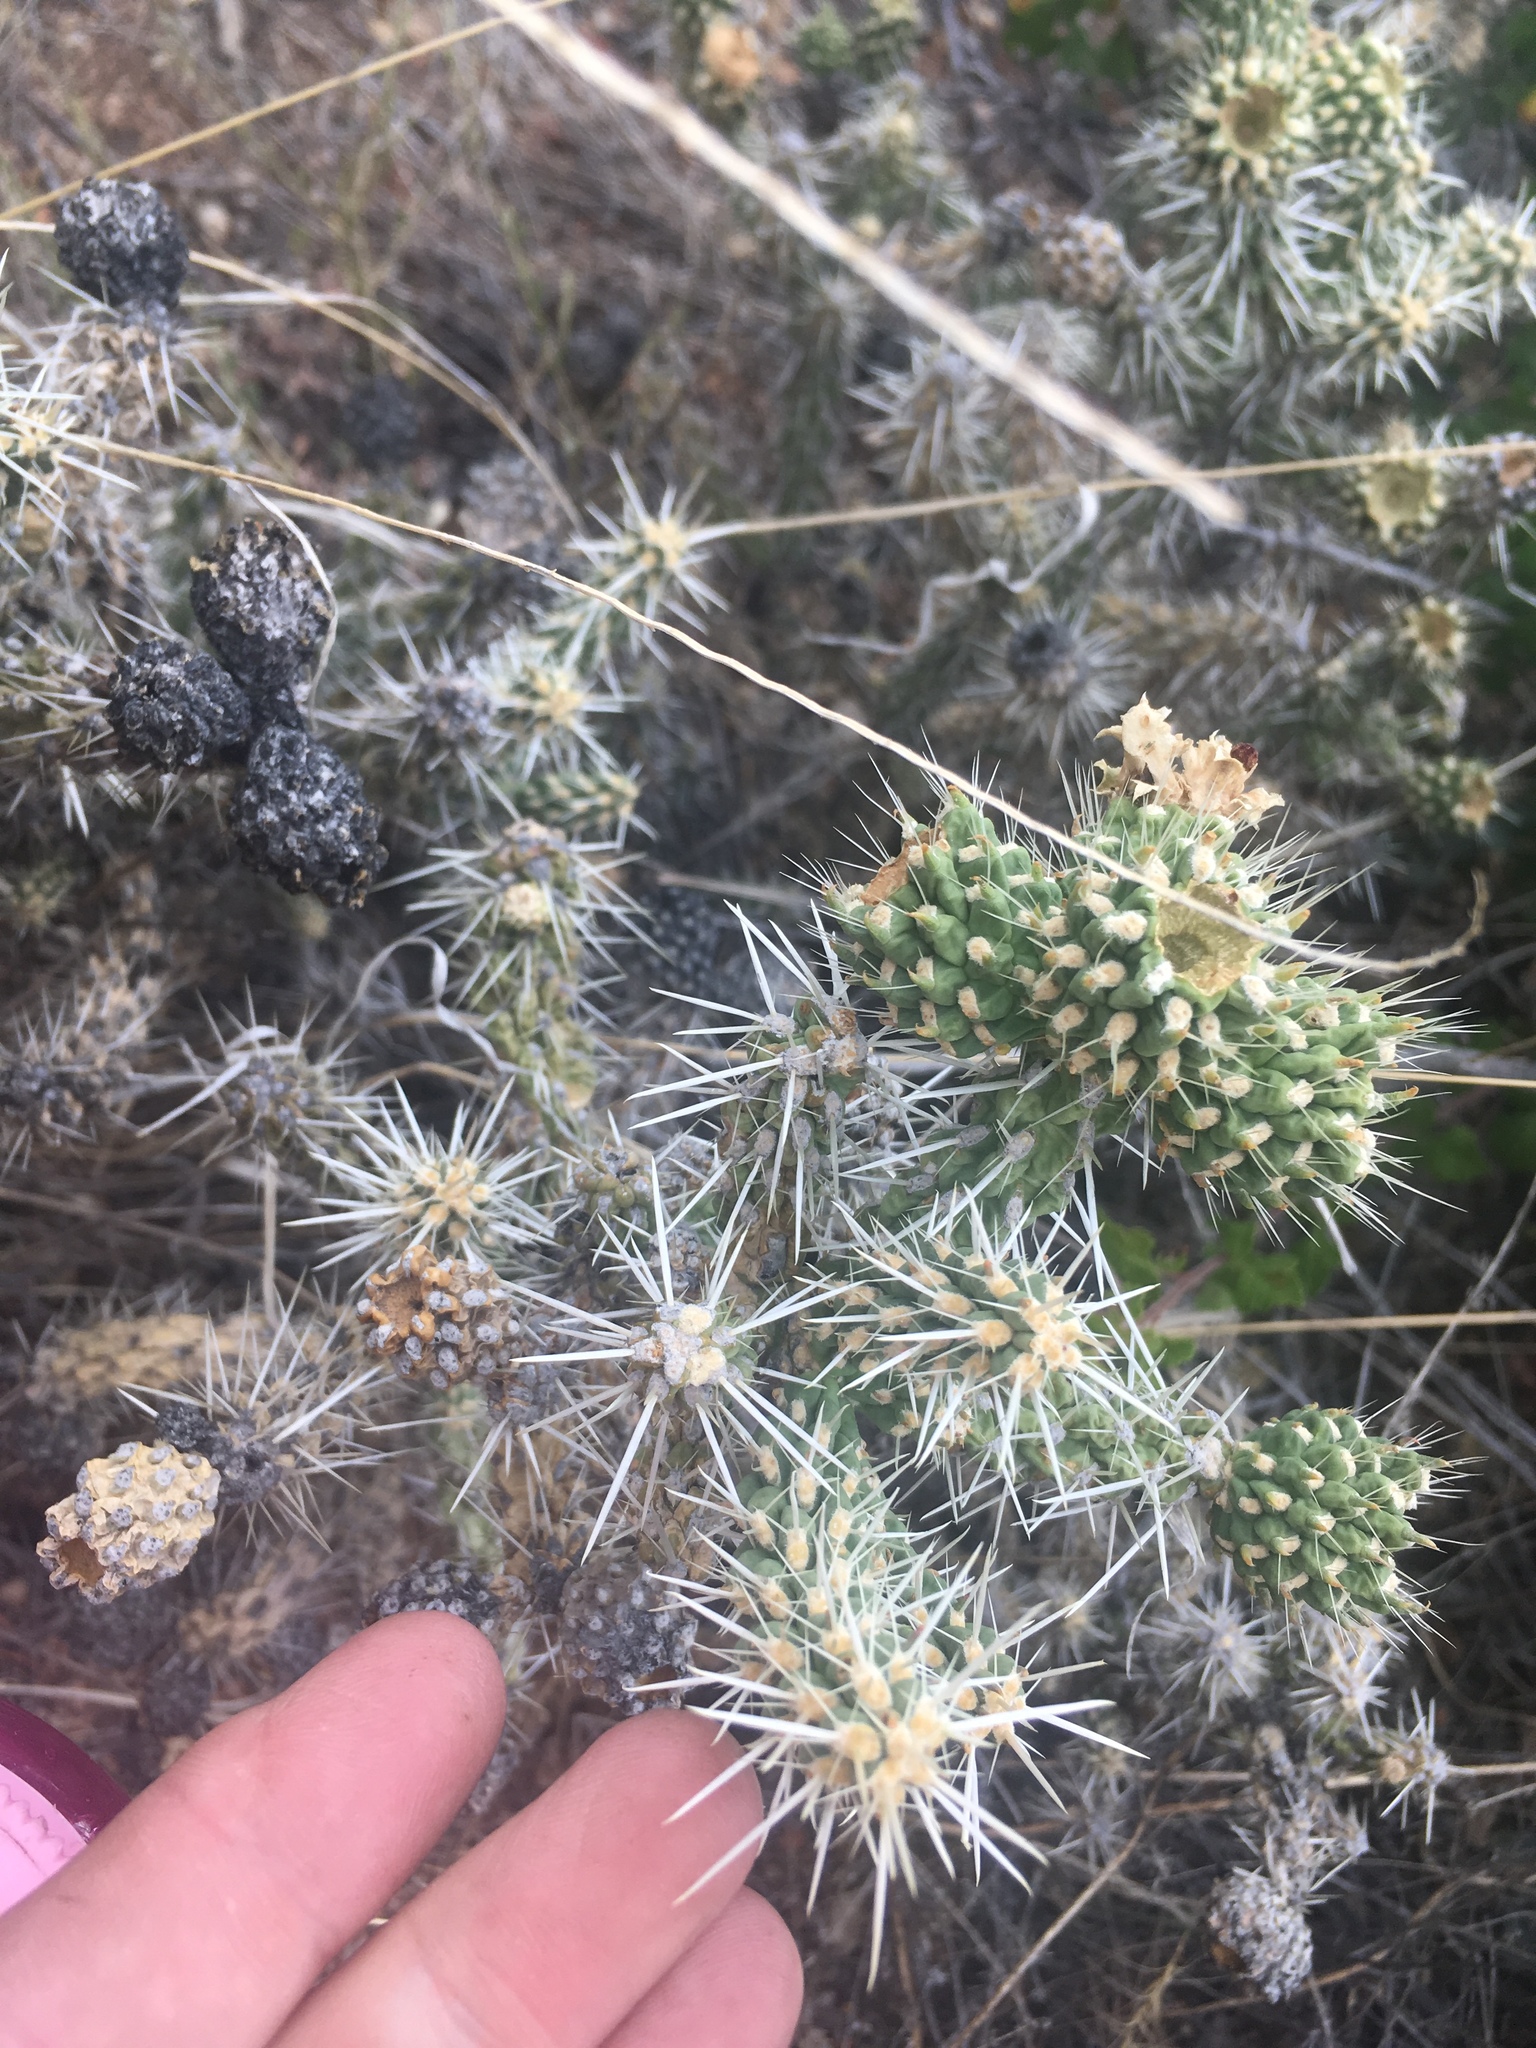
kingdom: Plantae
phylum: Tracheophyta
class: Magnoliopsida
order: Caryophyllales
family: Cactaceae
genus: Cylindropuntia
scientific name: Cylindropuntia whipplei
